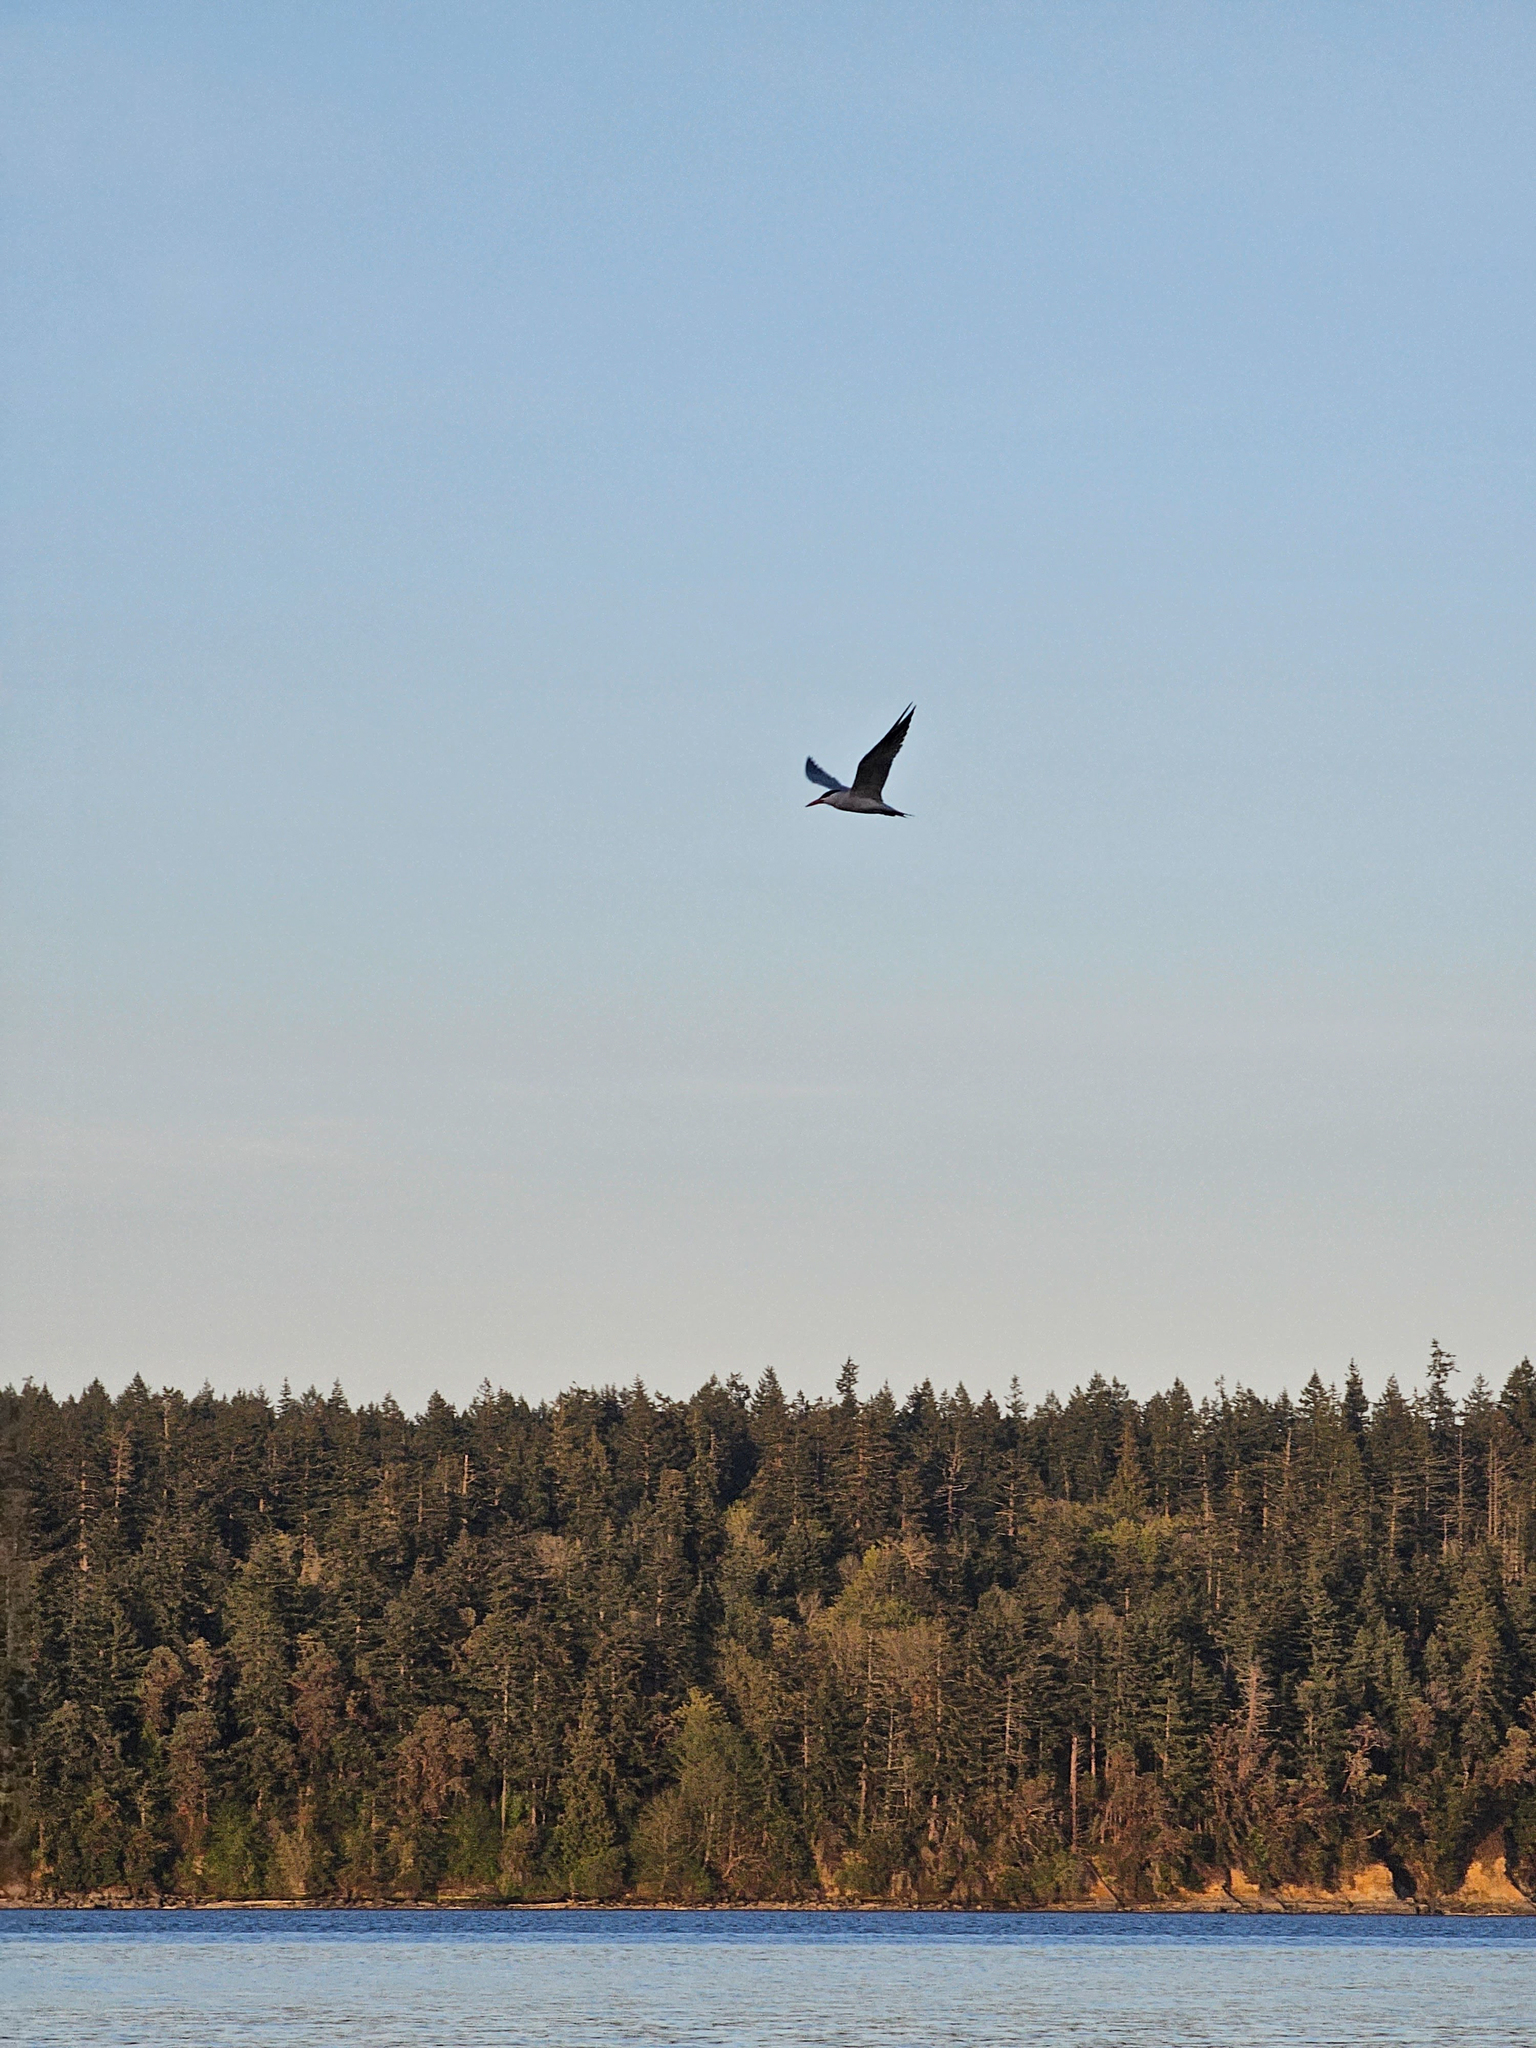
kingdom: Animalia
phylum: Chordata
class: Aves
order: Charadriiformes
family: Laridae
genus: Hydroprogne
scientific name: Hydroprogne caspia
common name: Caspian tern
